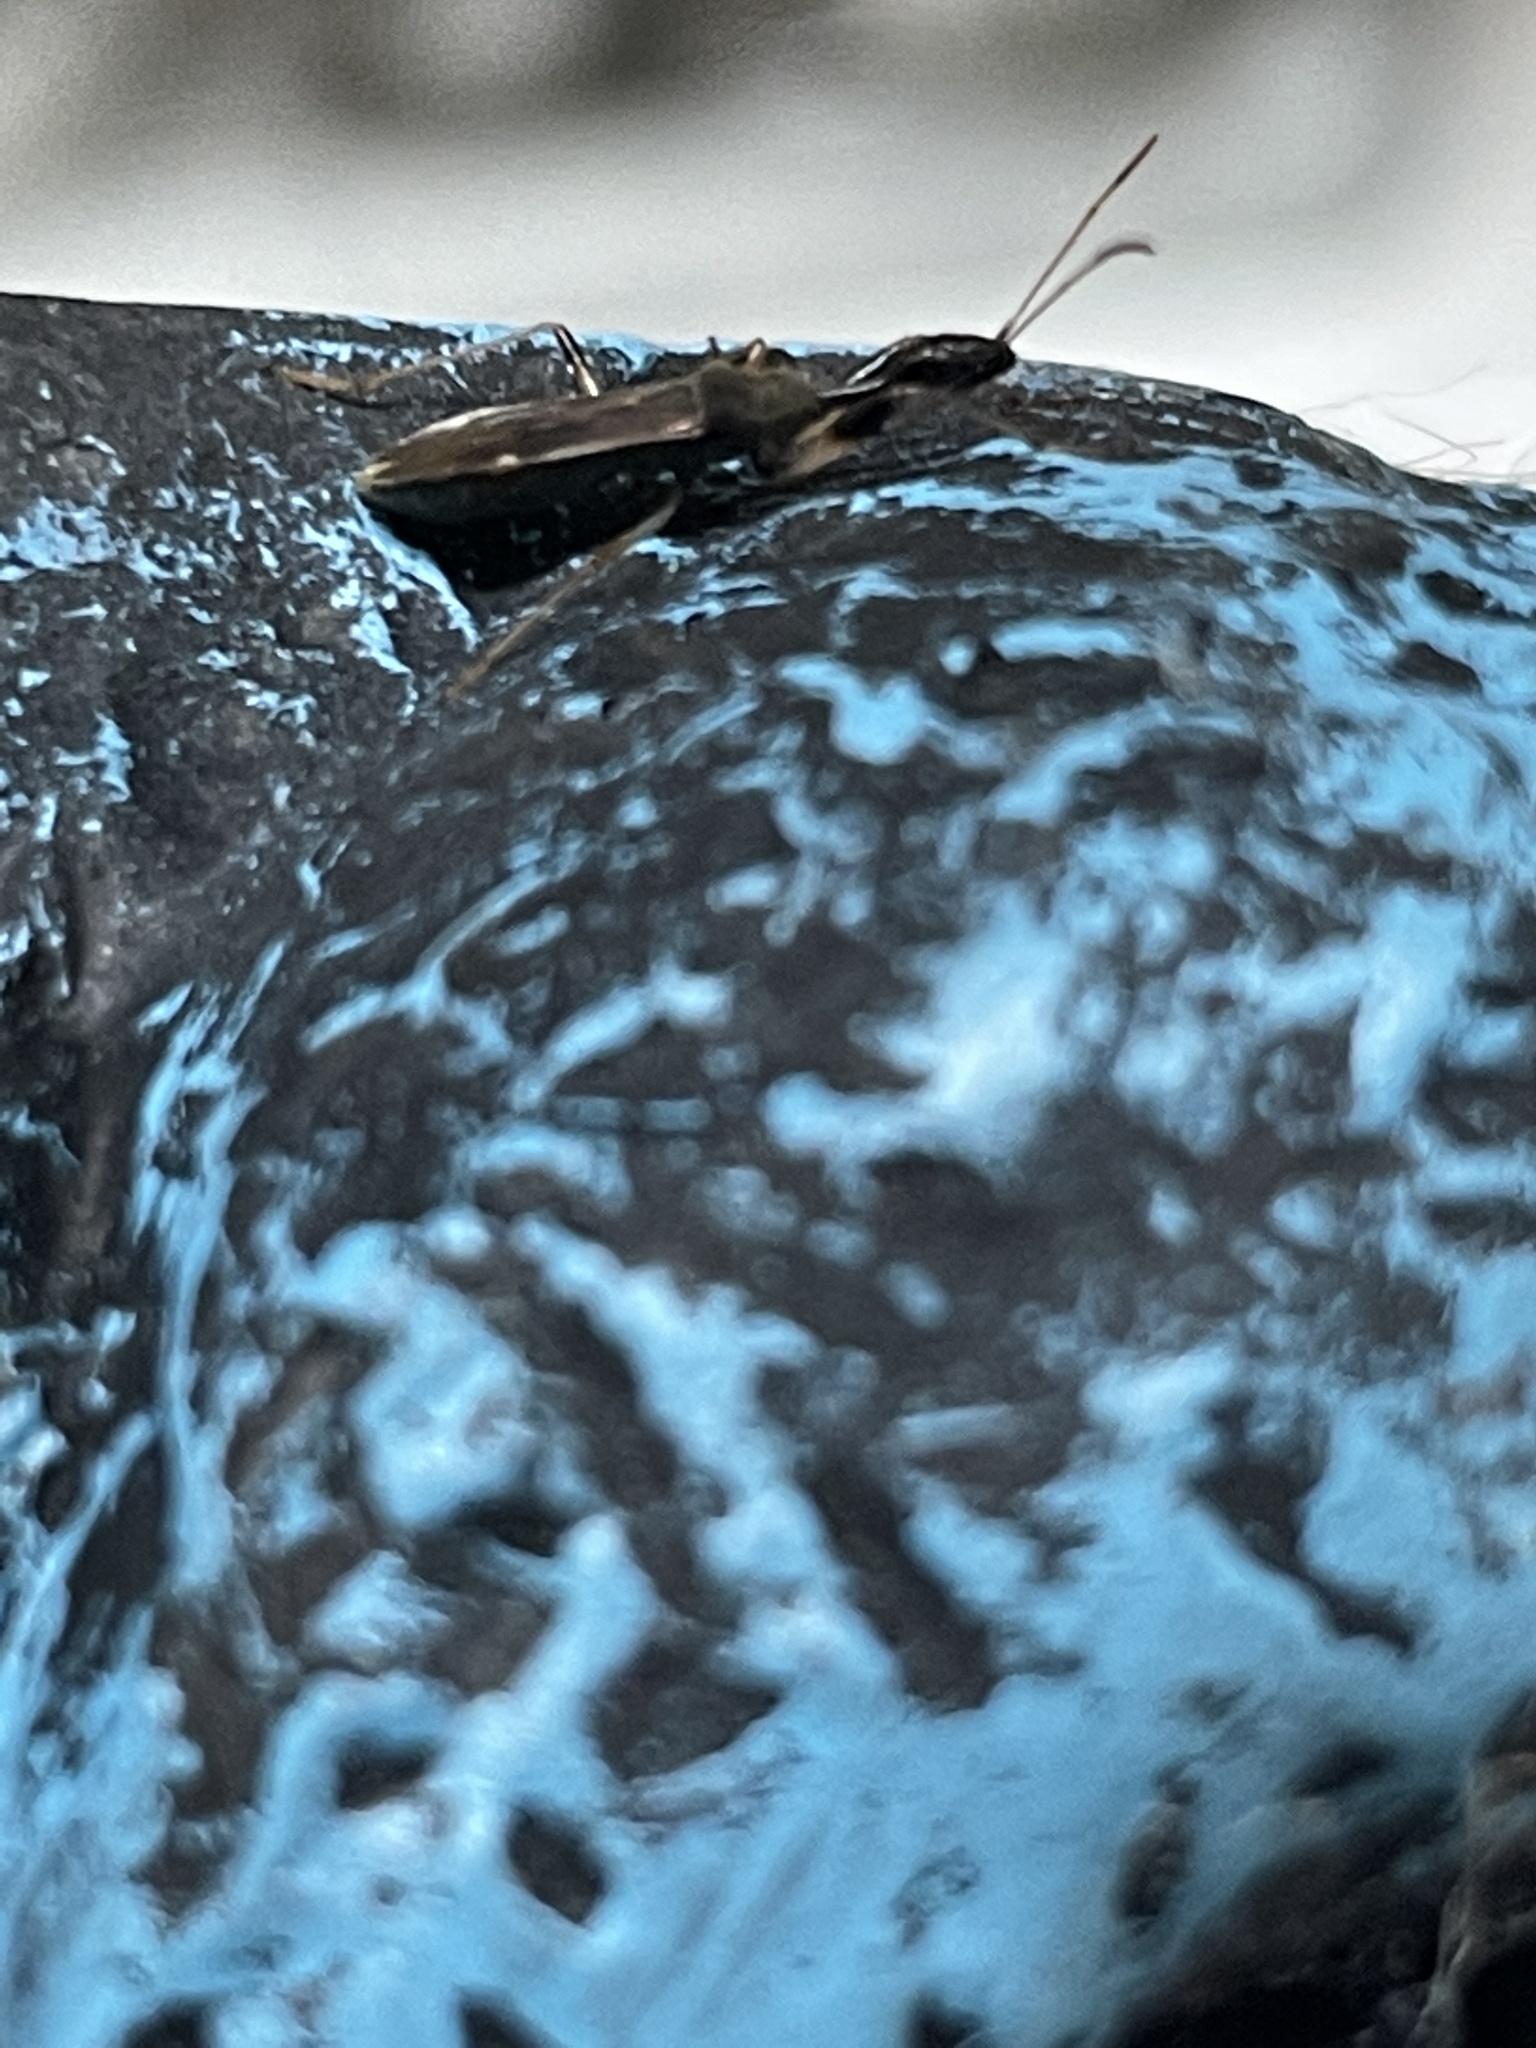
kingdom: Animalia
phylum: Arthropoda
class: Insecta
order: Hemiptera
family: Rhyparochromidae
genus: Myodocha
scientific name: Myodocha serripes
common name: Long-necked seed bug
